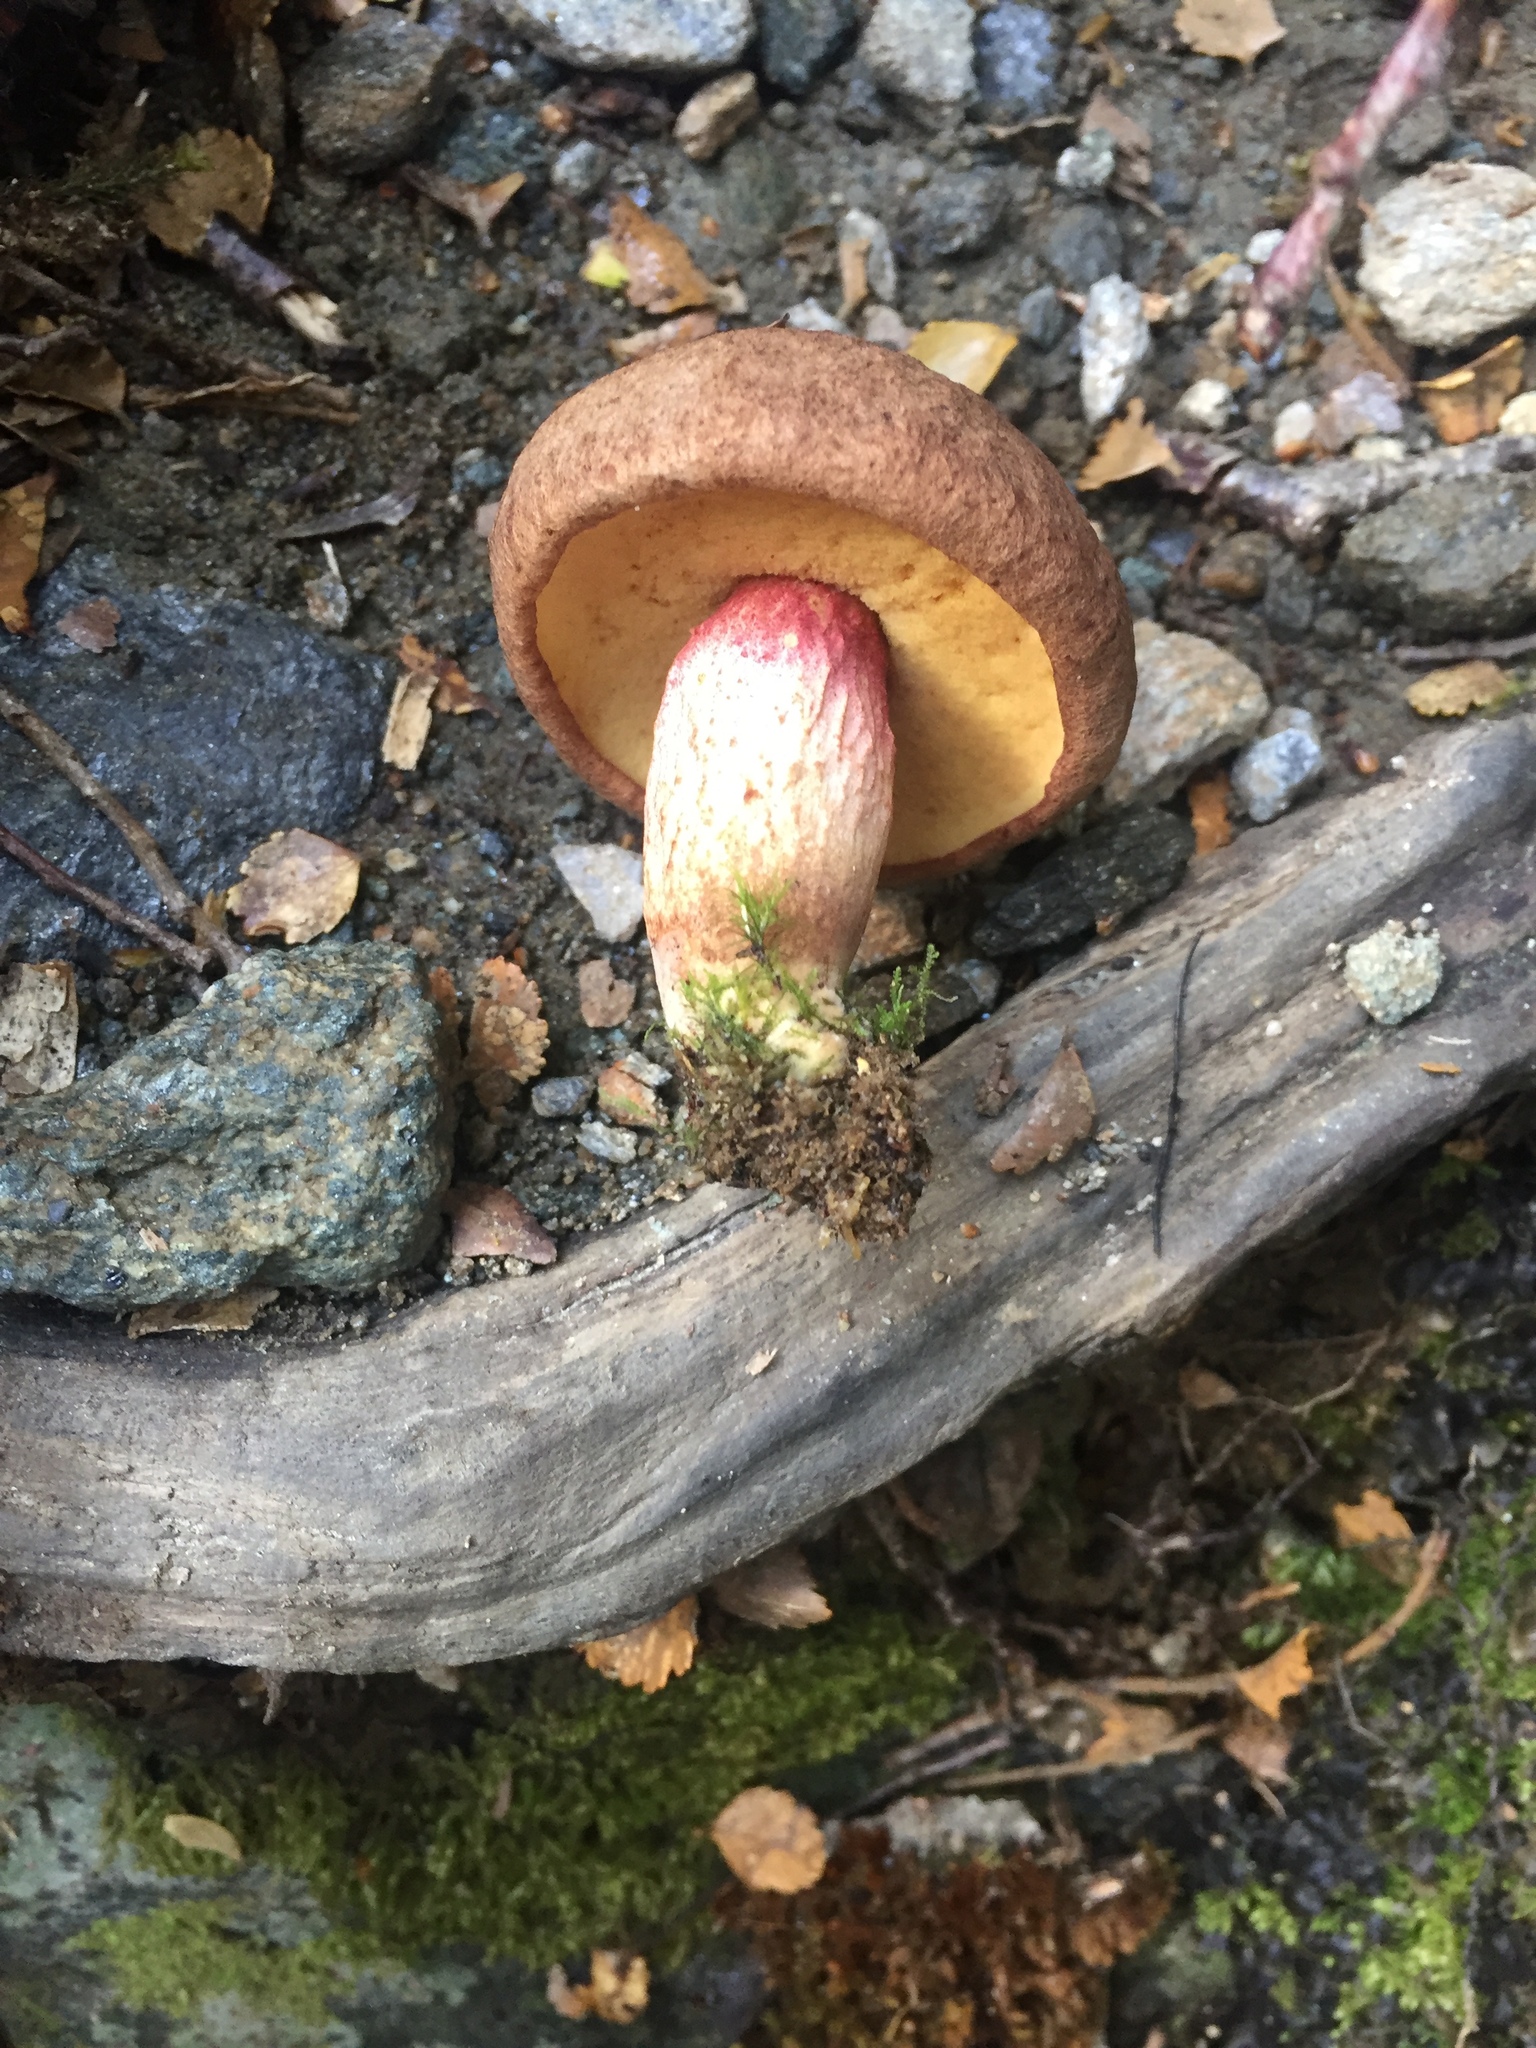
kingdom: Fungi
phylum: Basidiomycota
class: Agaricomycetes
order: Boletales
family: Boletaceae
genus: Xerocomus
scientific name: Xerocomus nothofagi
